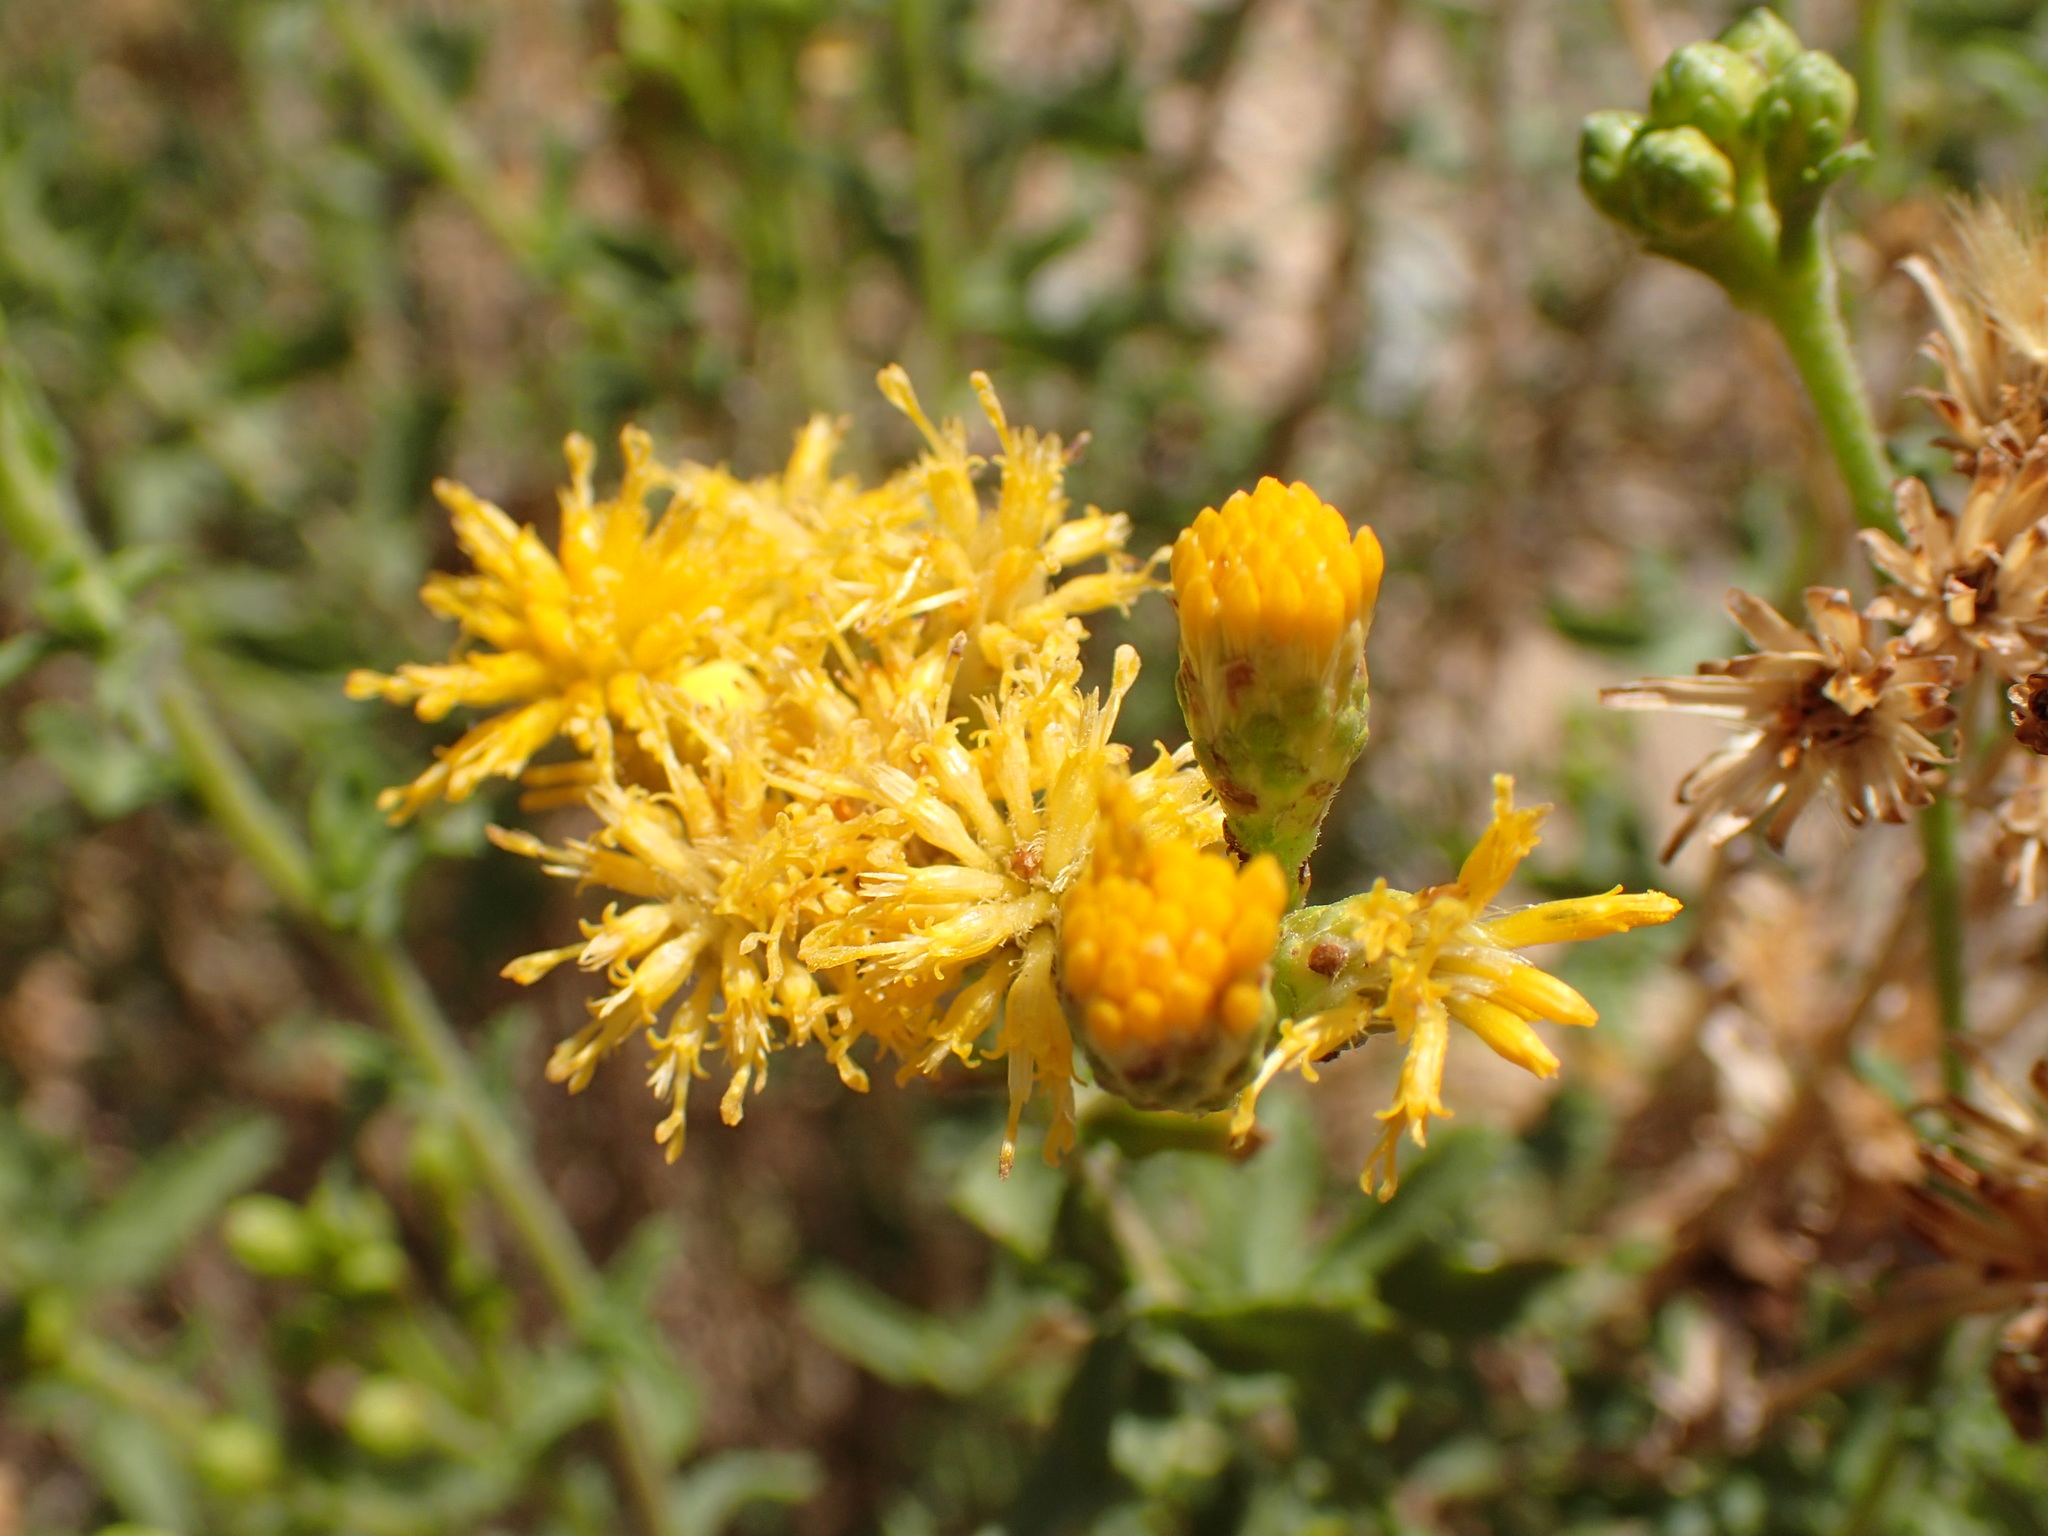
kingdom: Plantae
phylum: Tracheophyta
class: Magnoliopsida
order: Asterales
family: Asteraceae
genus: Isocoma
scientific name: Isocoma menziesii
